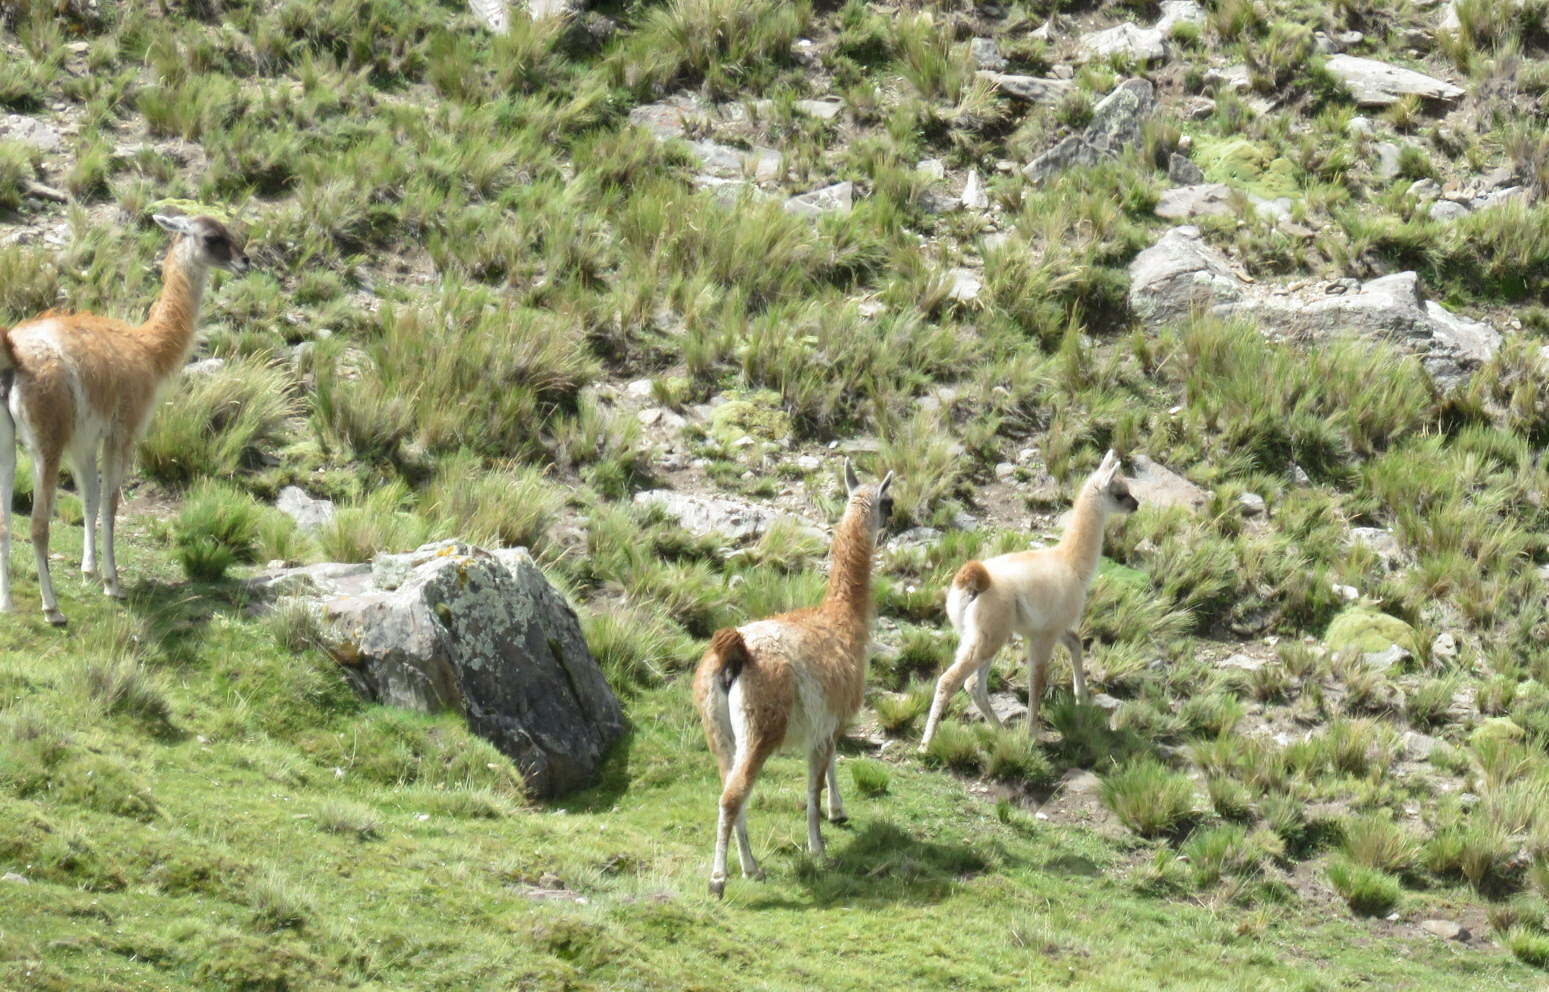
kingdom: Animalia
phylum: Chordata
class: Mammalia
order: Artiodactyla
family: Camelidae
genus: Lama
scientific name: Lama glama
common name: Llama
